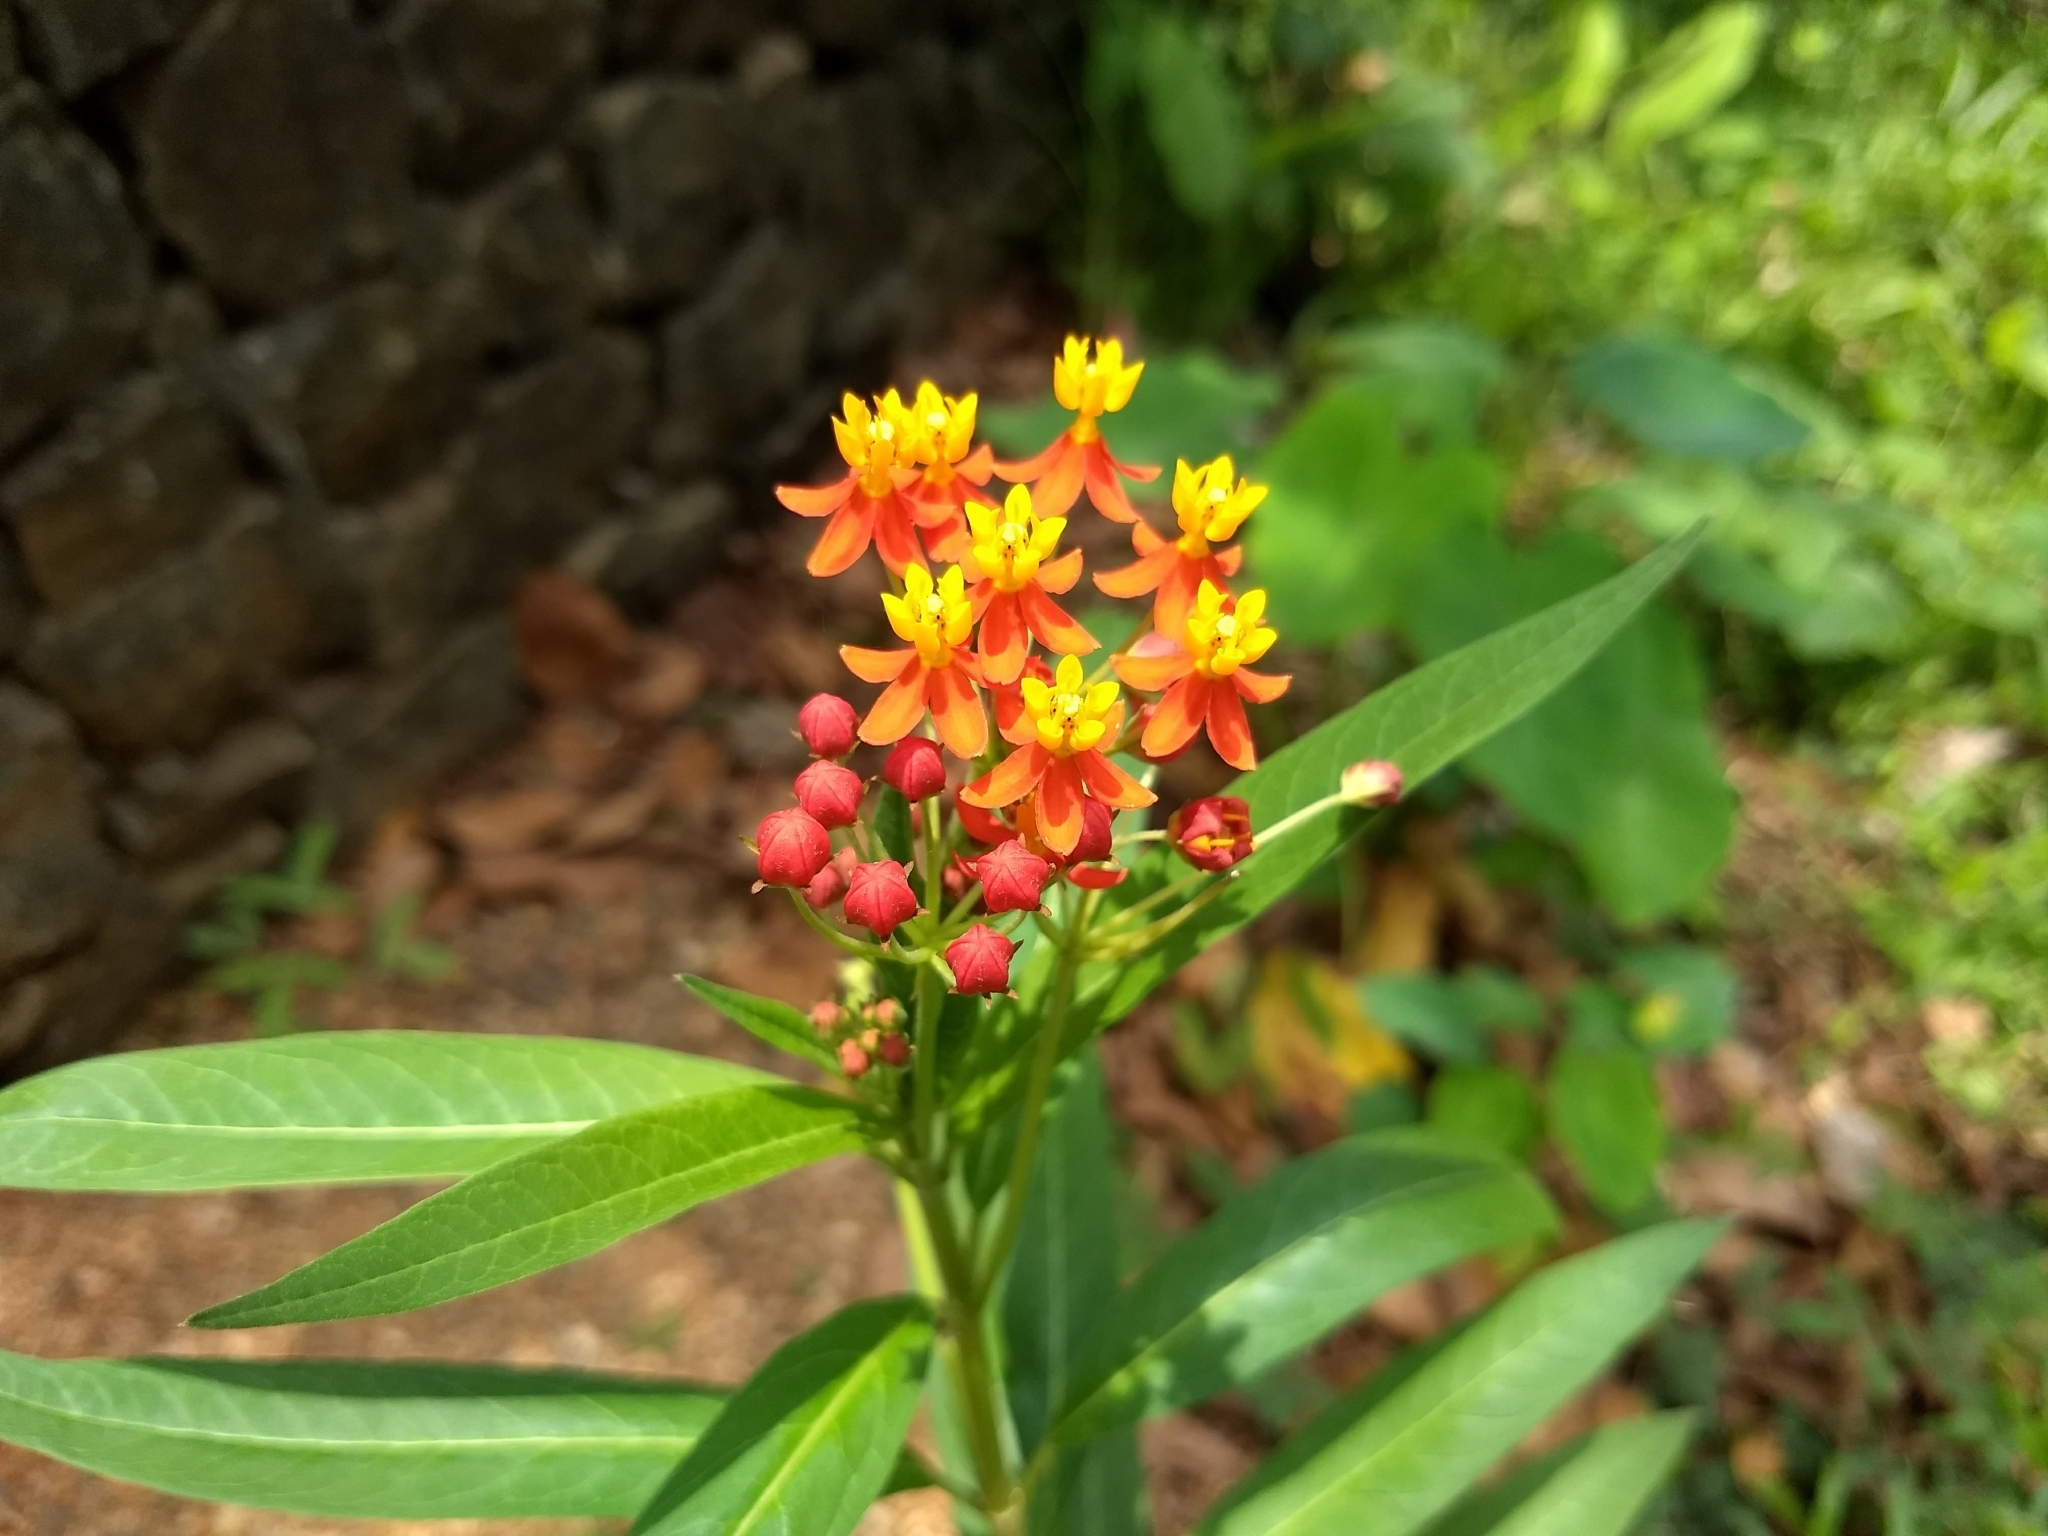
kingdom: Plantae
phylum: Tracheophyta
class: Magnoliopsida
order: Gentianales
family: Apocynaceae
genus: Asclepias
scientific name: Asclepias curassavica
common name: Bloodflower
